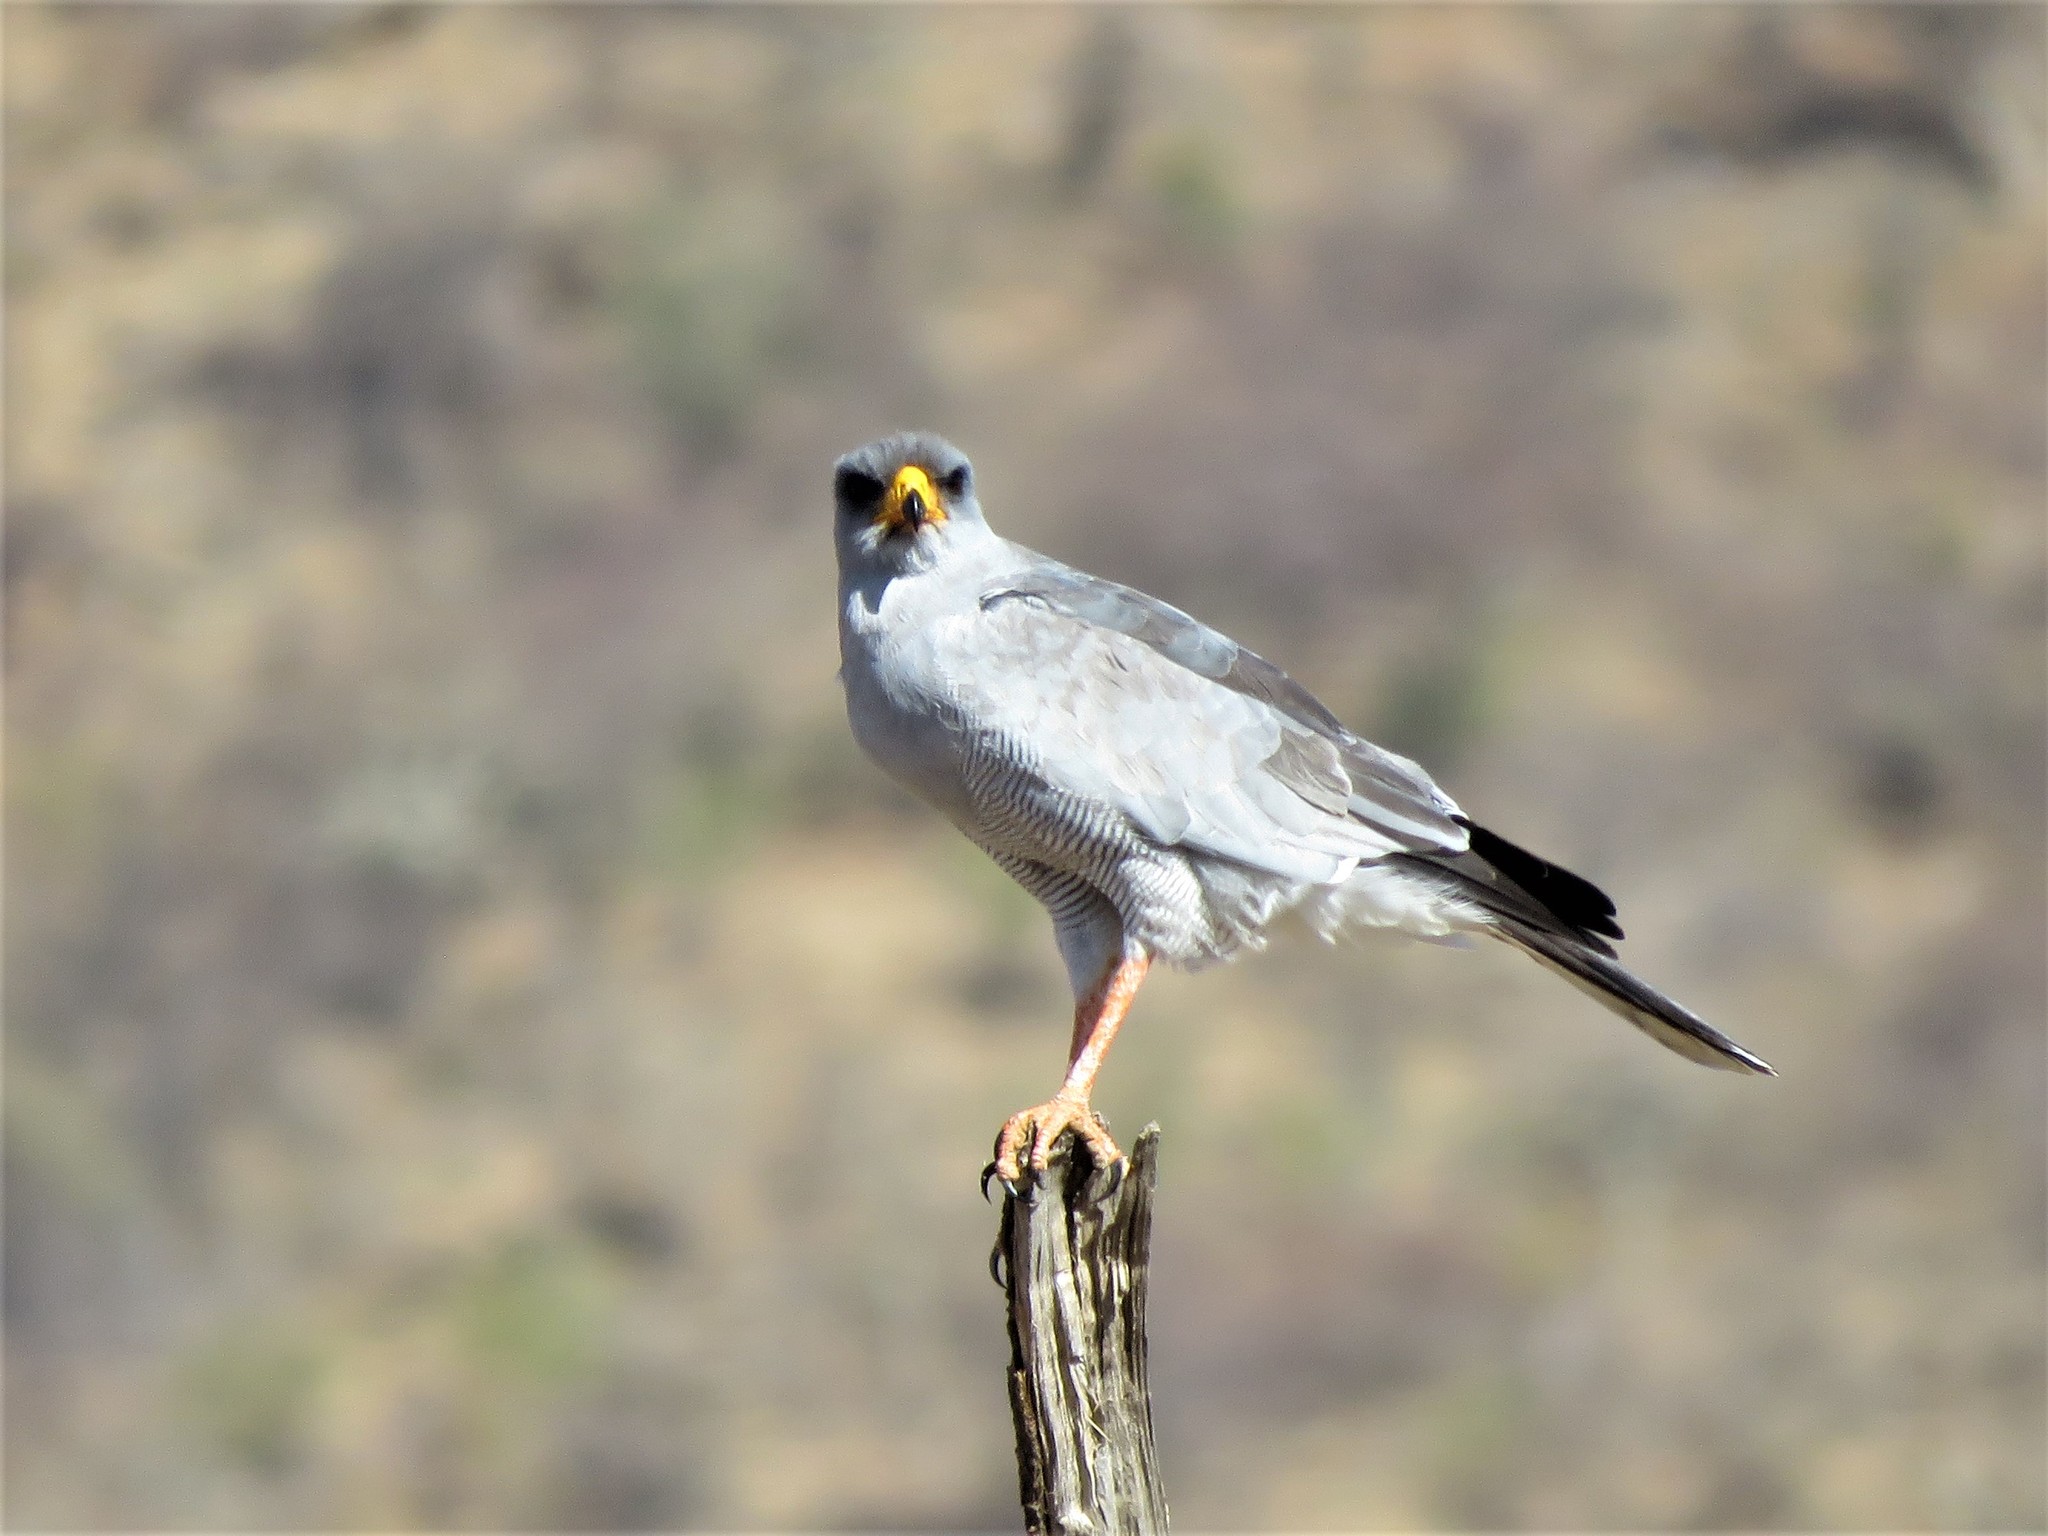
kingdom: Animalia
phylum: Chordata
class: Aves
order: Accipitriformes
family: Accipitridae
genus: Melierax
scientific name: Melierax poliopterus
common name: Eastern chanting goshawk
